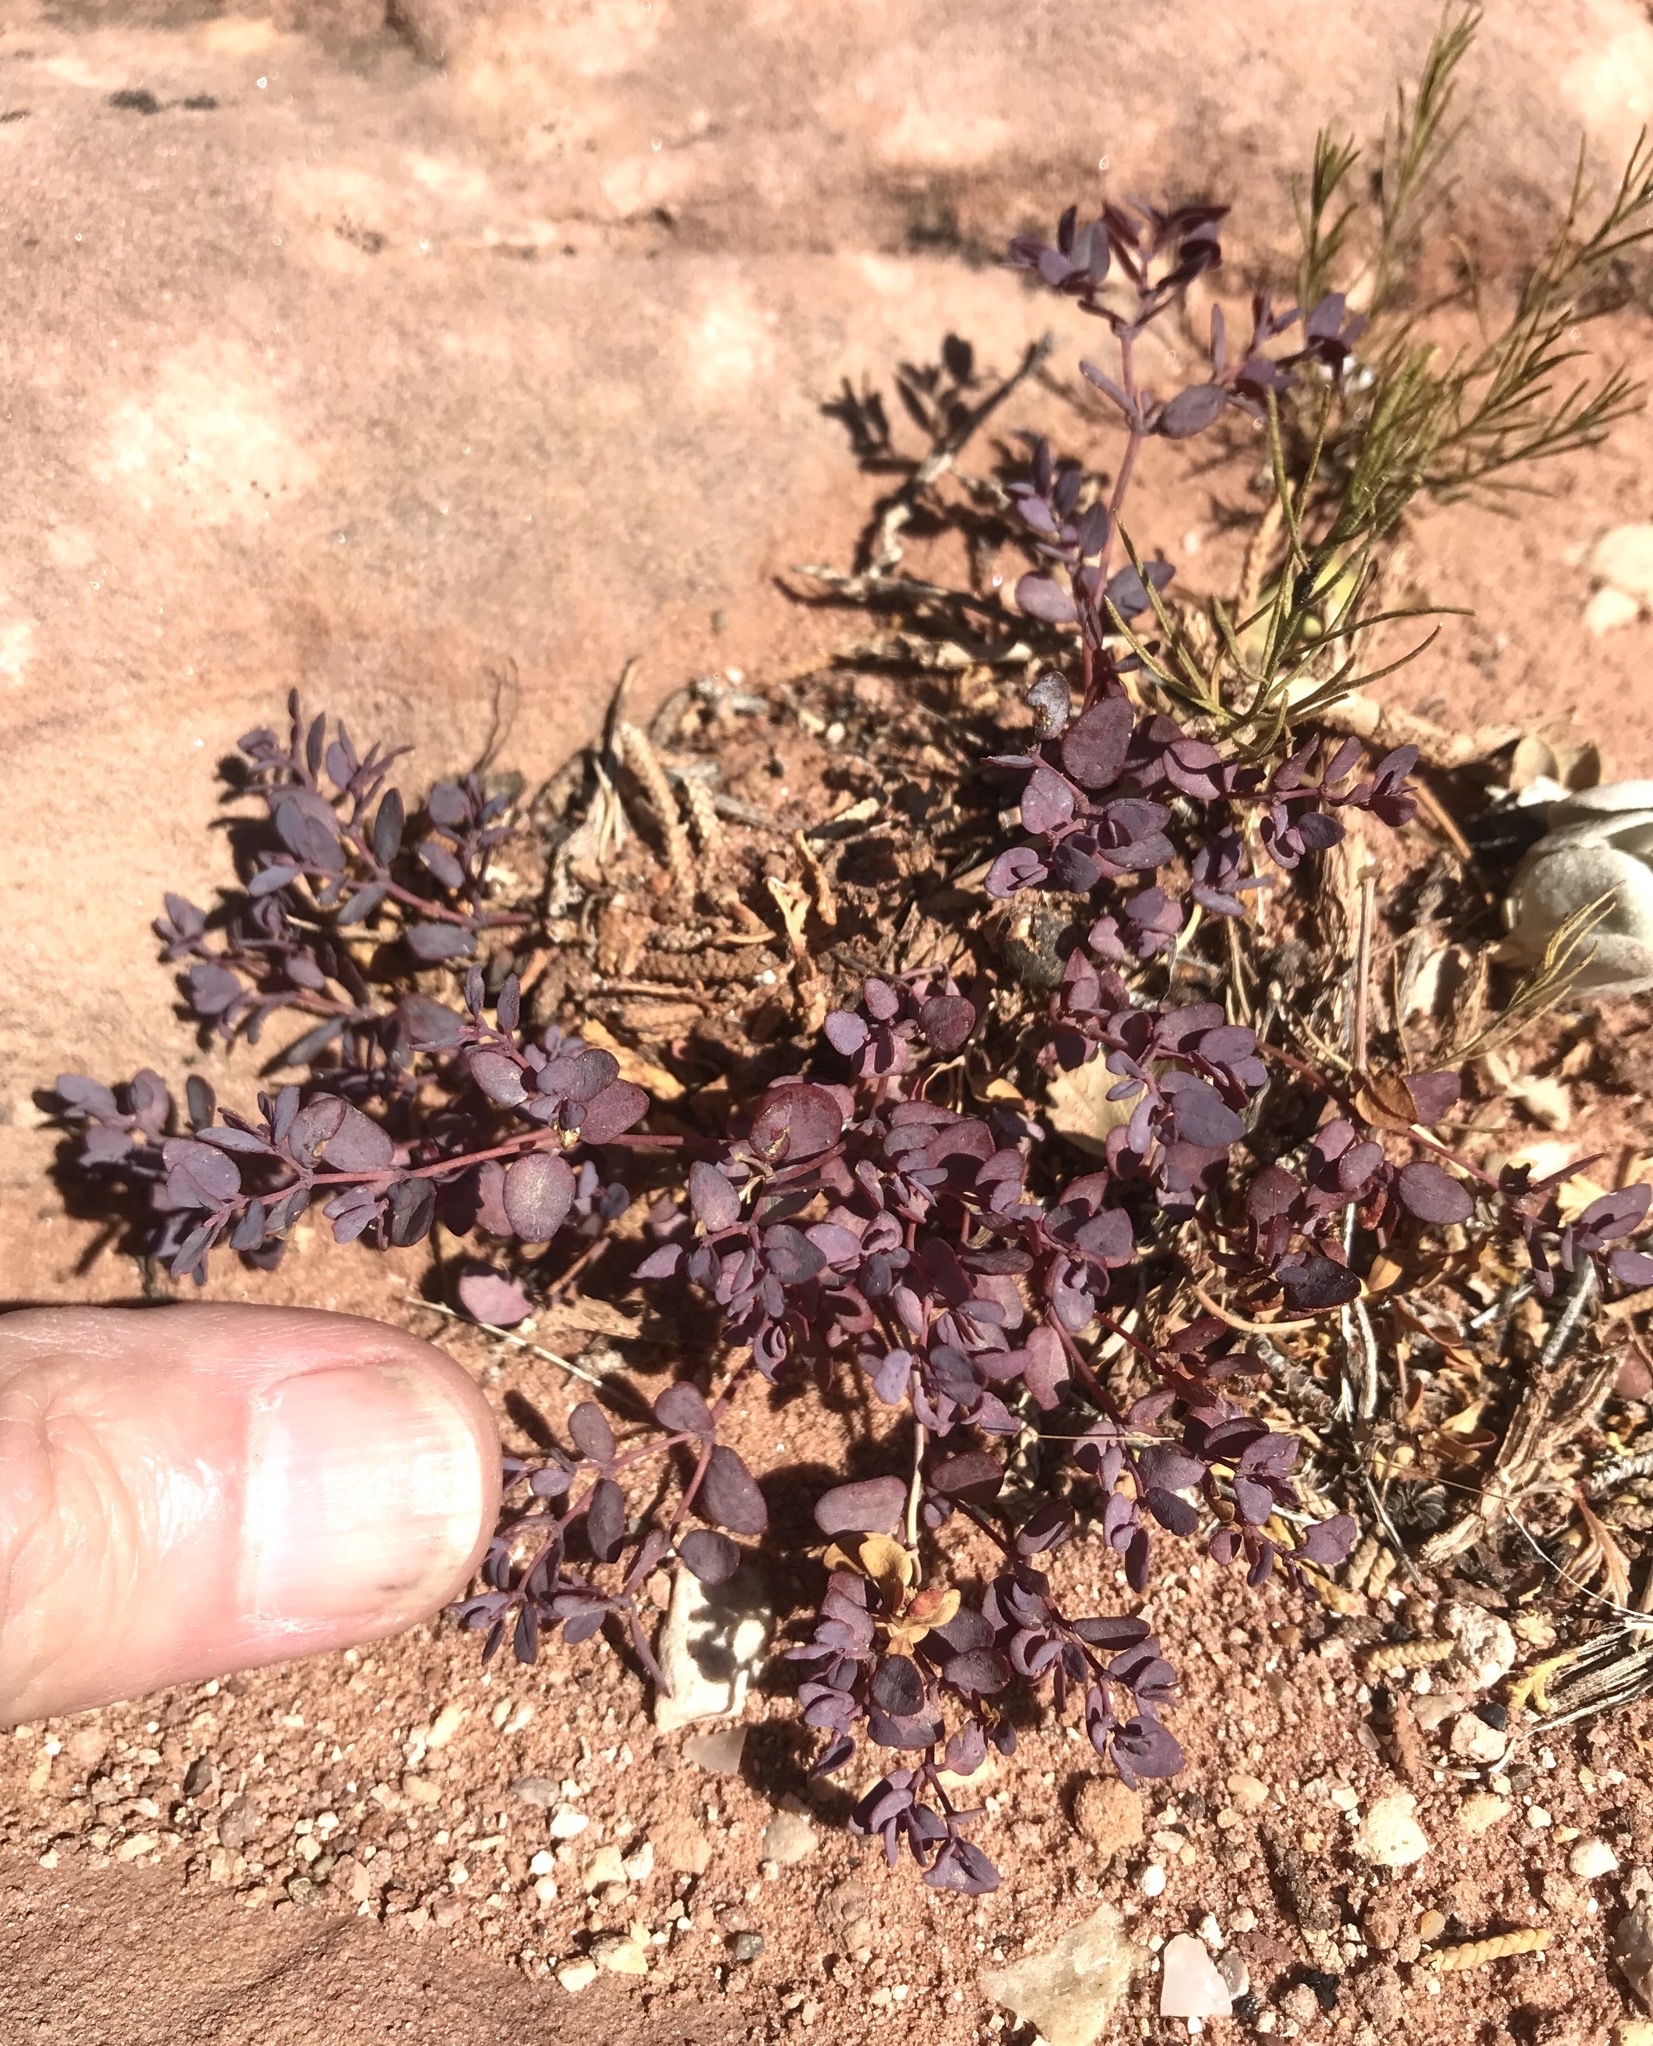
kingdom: Plantae
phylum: Tracheophyta
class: Magnoliopsida
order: Malpighiales
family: Euphorbiaceae
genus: Euphorbia
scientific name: Euphorbia fendleri
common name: Fendler's euphorbia
